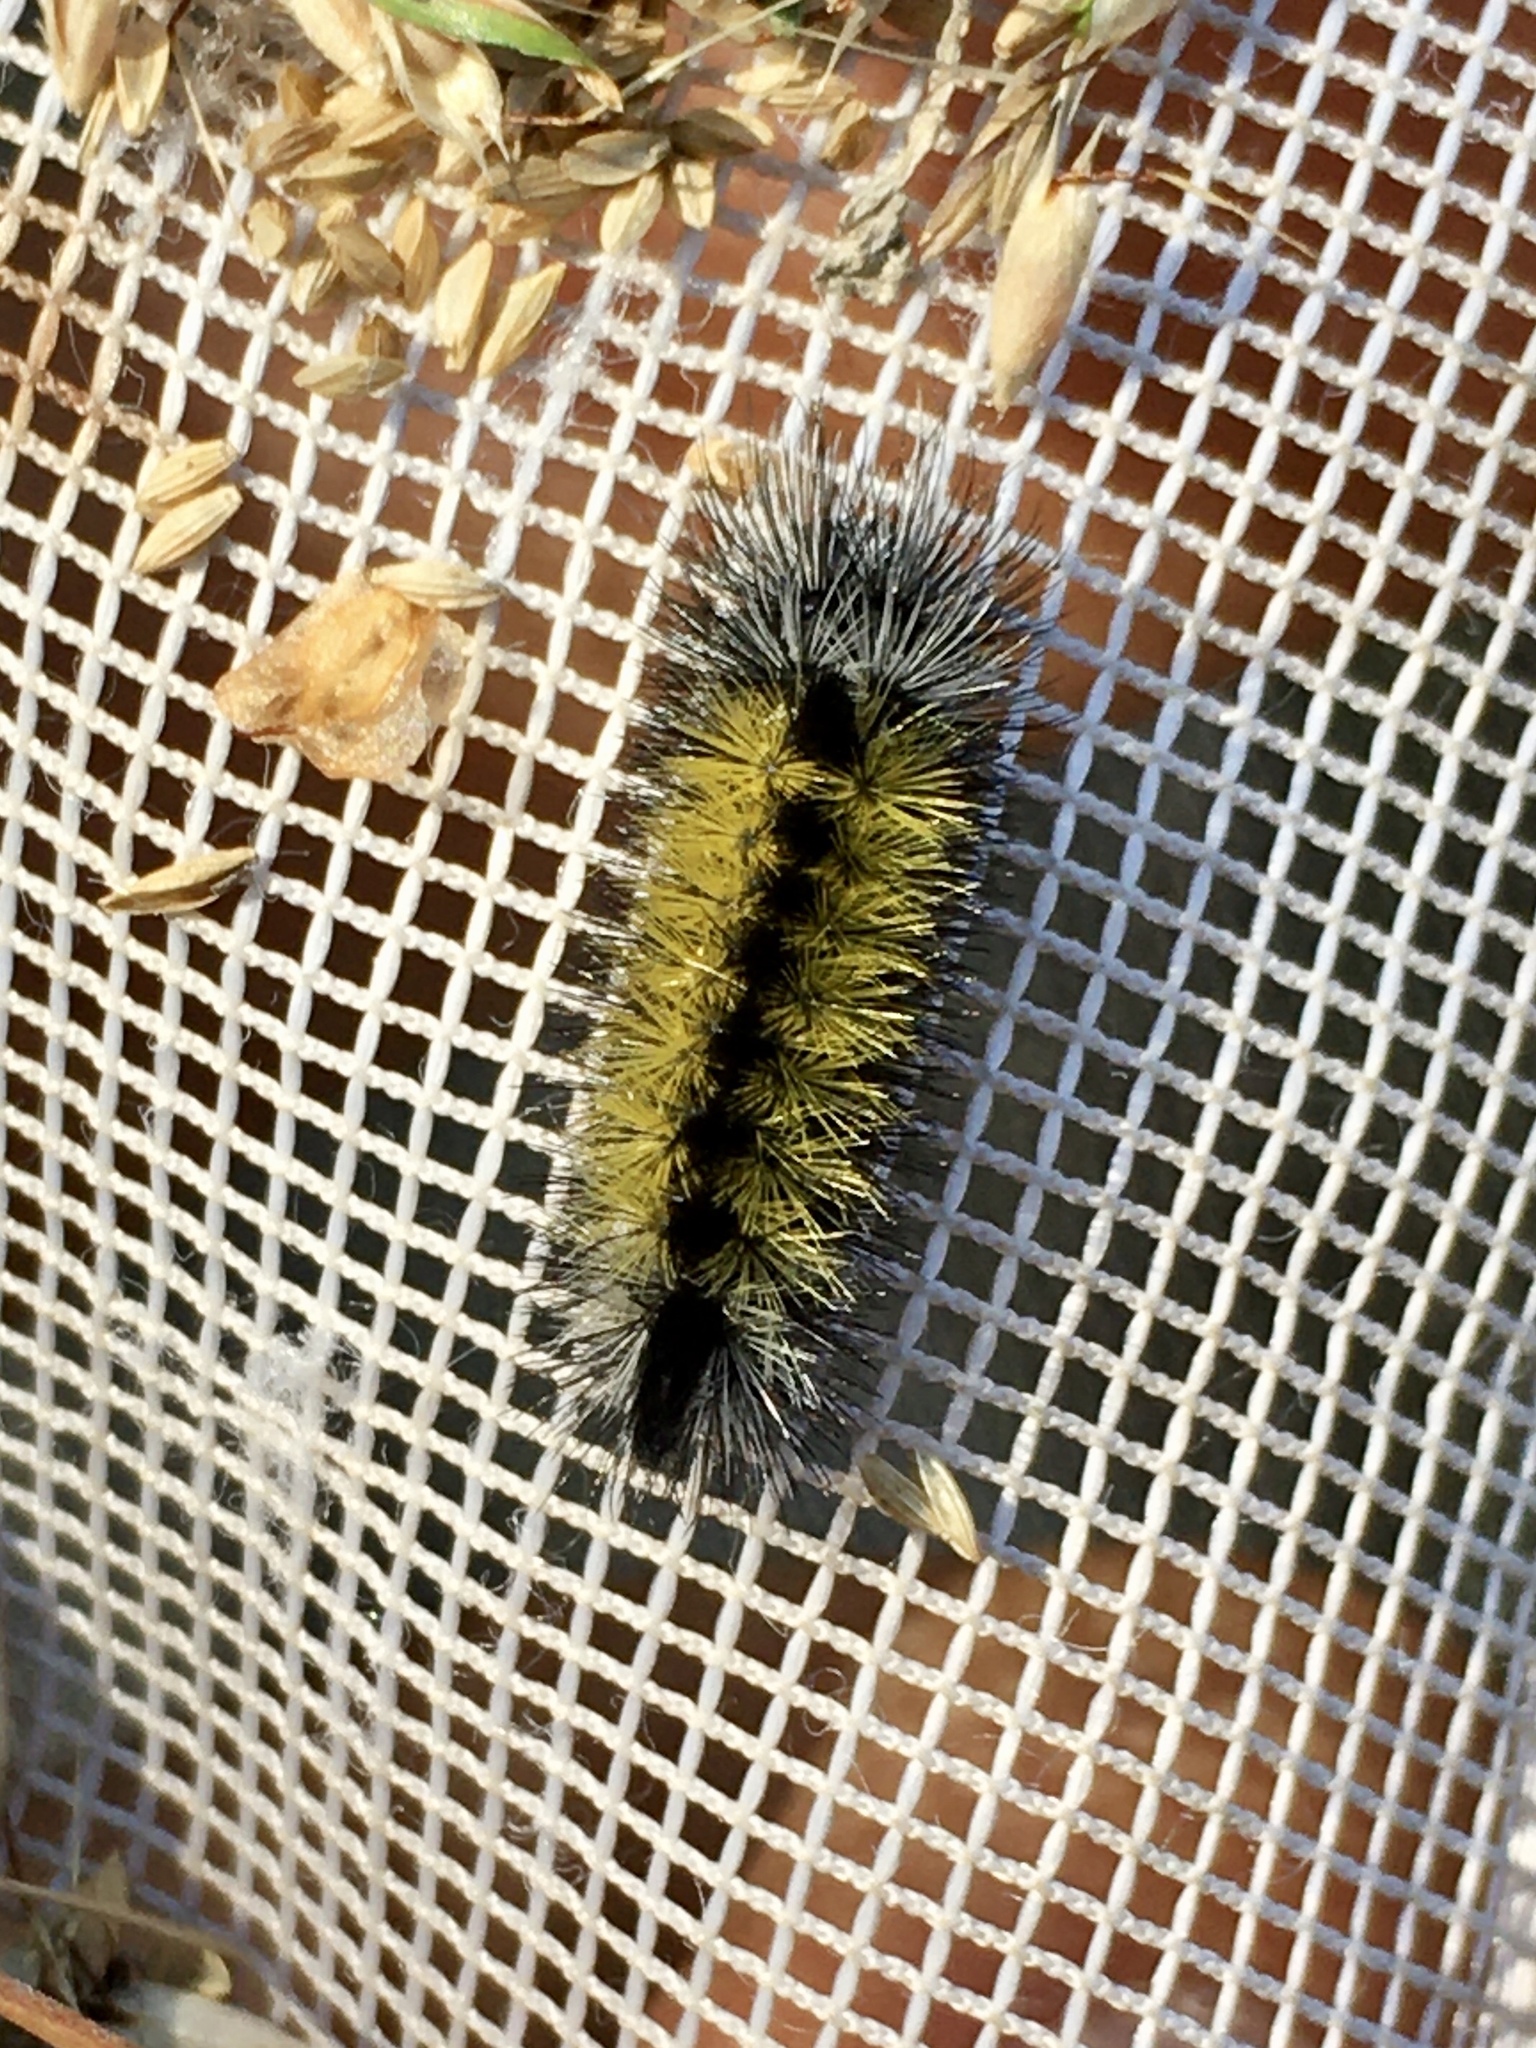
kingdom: Animalia
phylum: Arthropoda
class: Insecta
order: Lepidoptera
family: Erebidae
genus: Ctenucha
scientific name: Ctenucha virginica
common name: Virginia ctenucha moth
